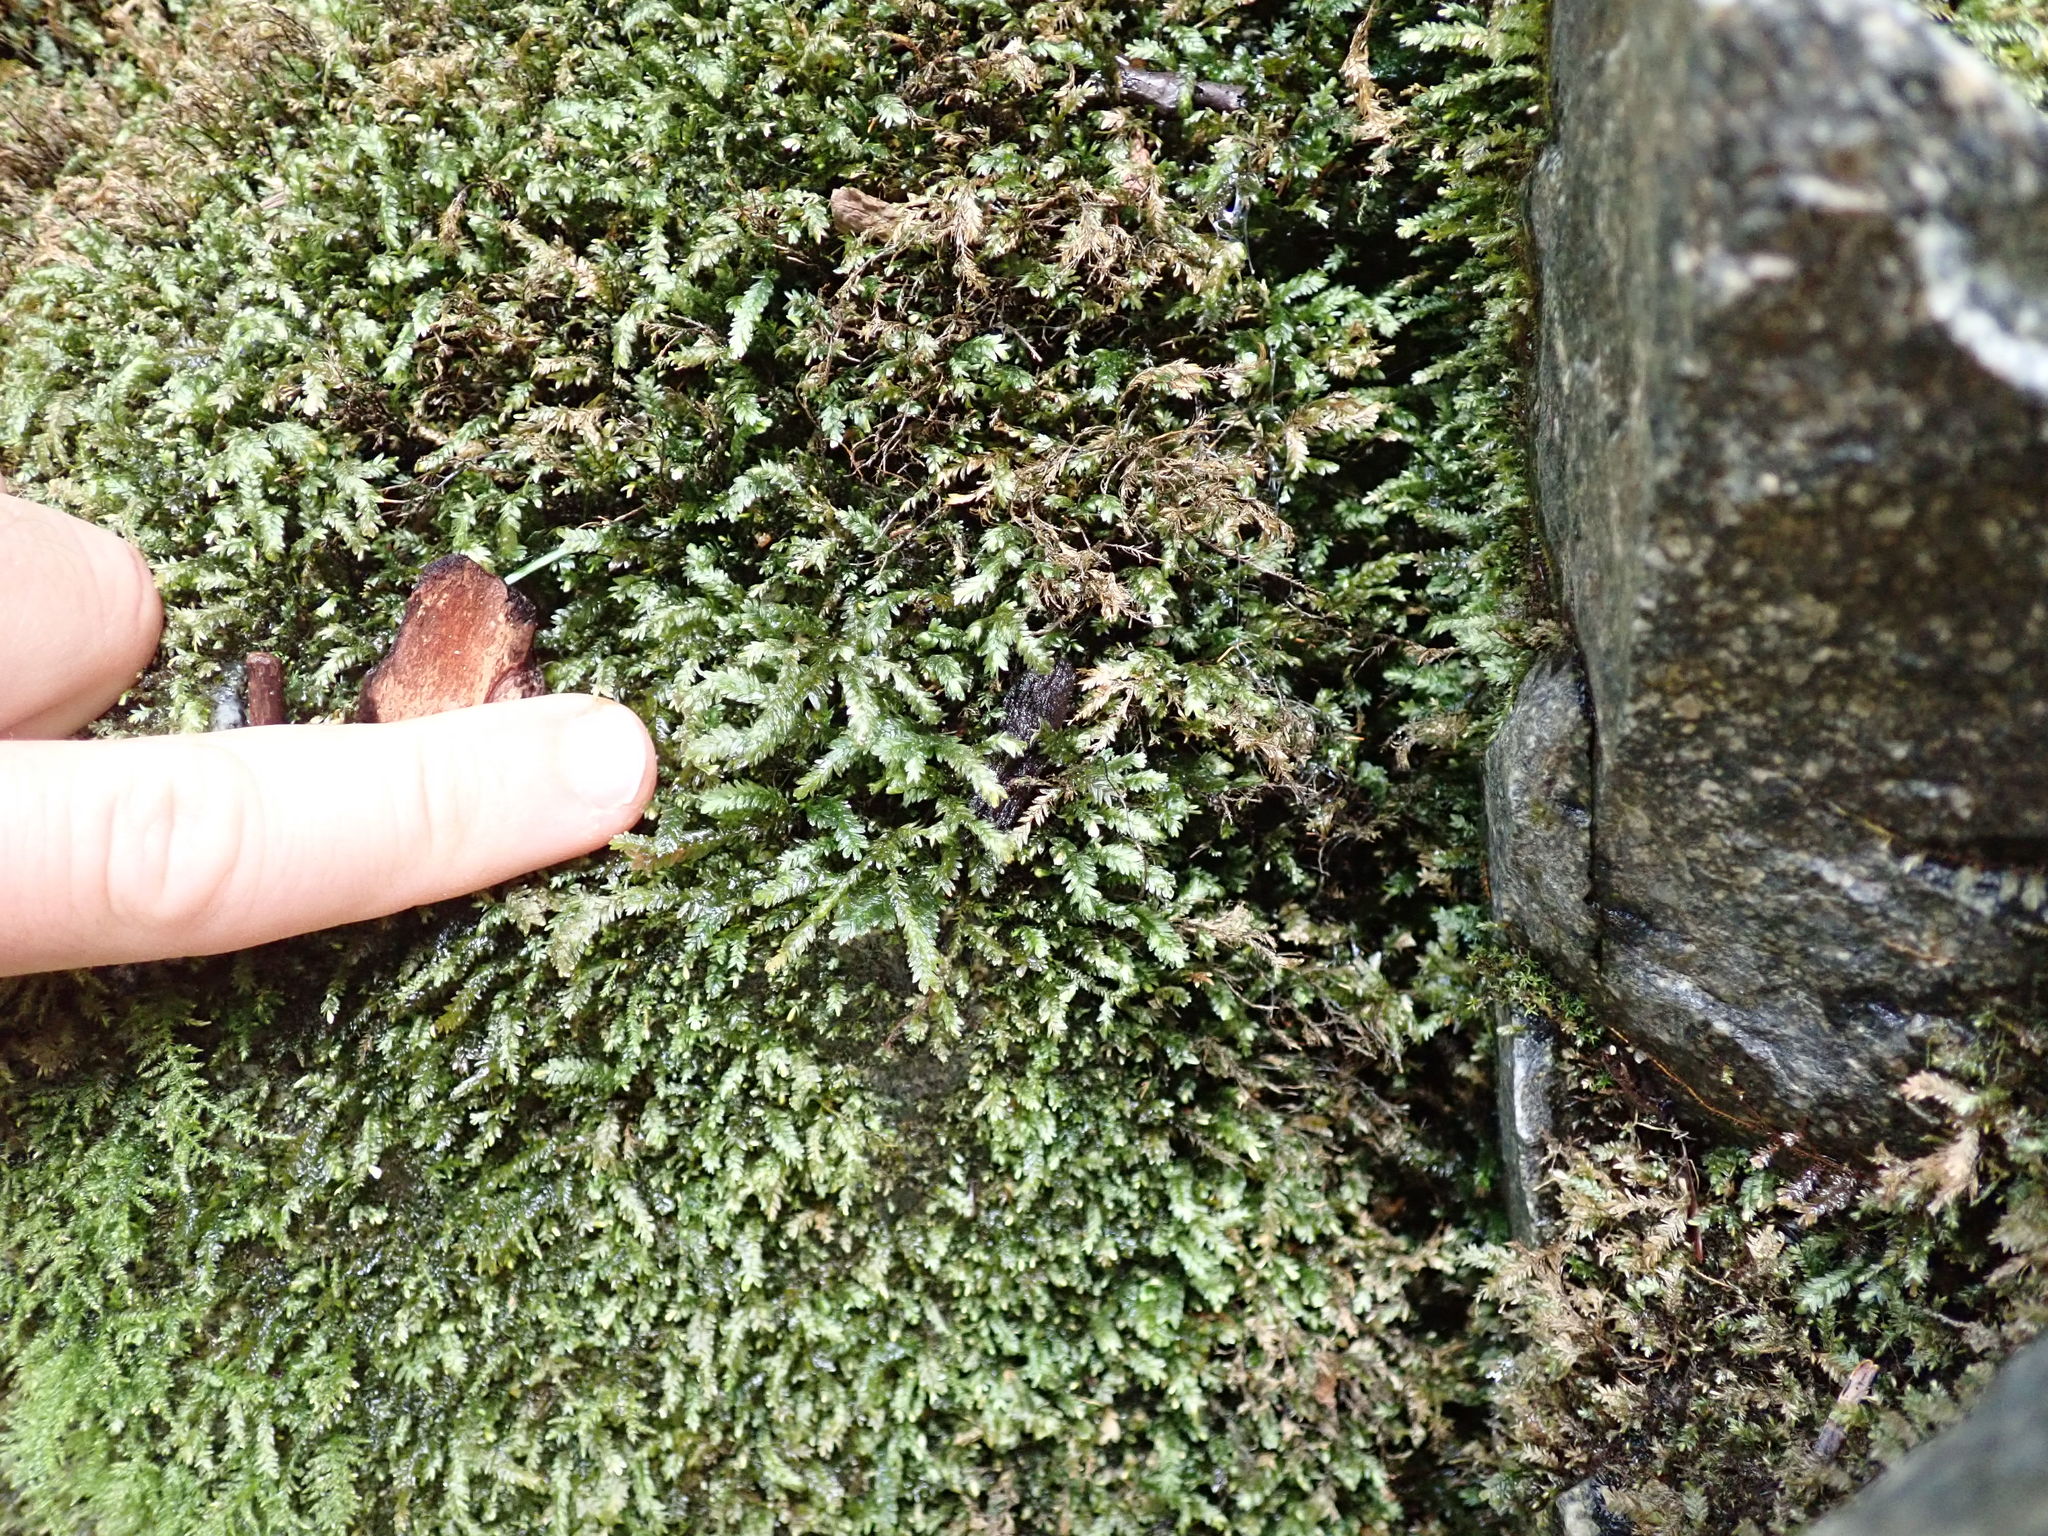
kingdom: Plantae
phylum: Bryophyta
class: Bryopsida
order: Hypnales
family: Neckeraceae
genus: Dannorrisia
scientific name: Dannorrisia bigelovii
